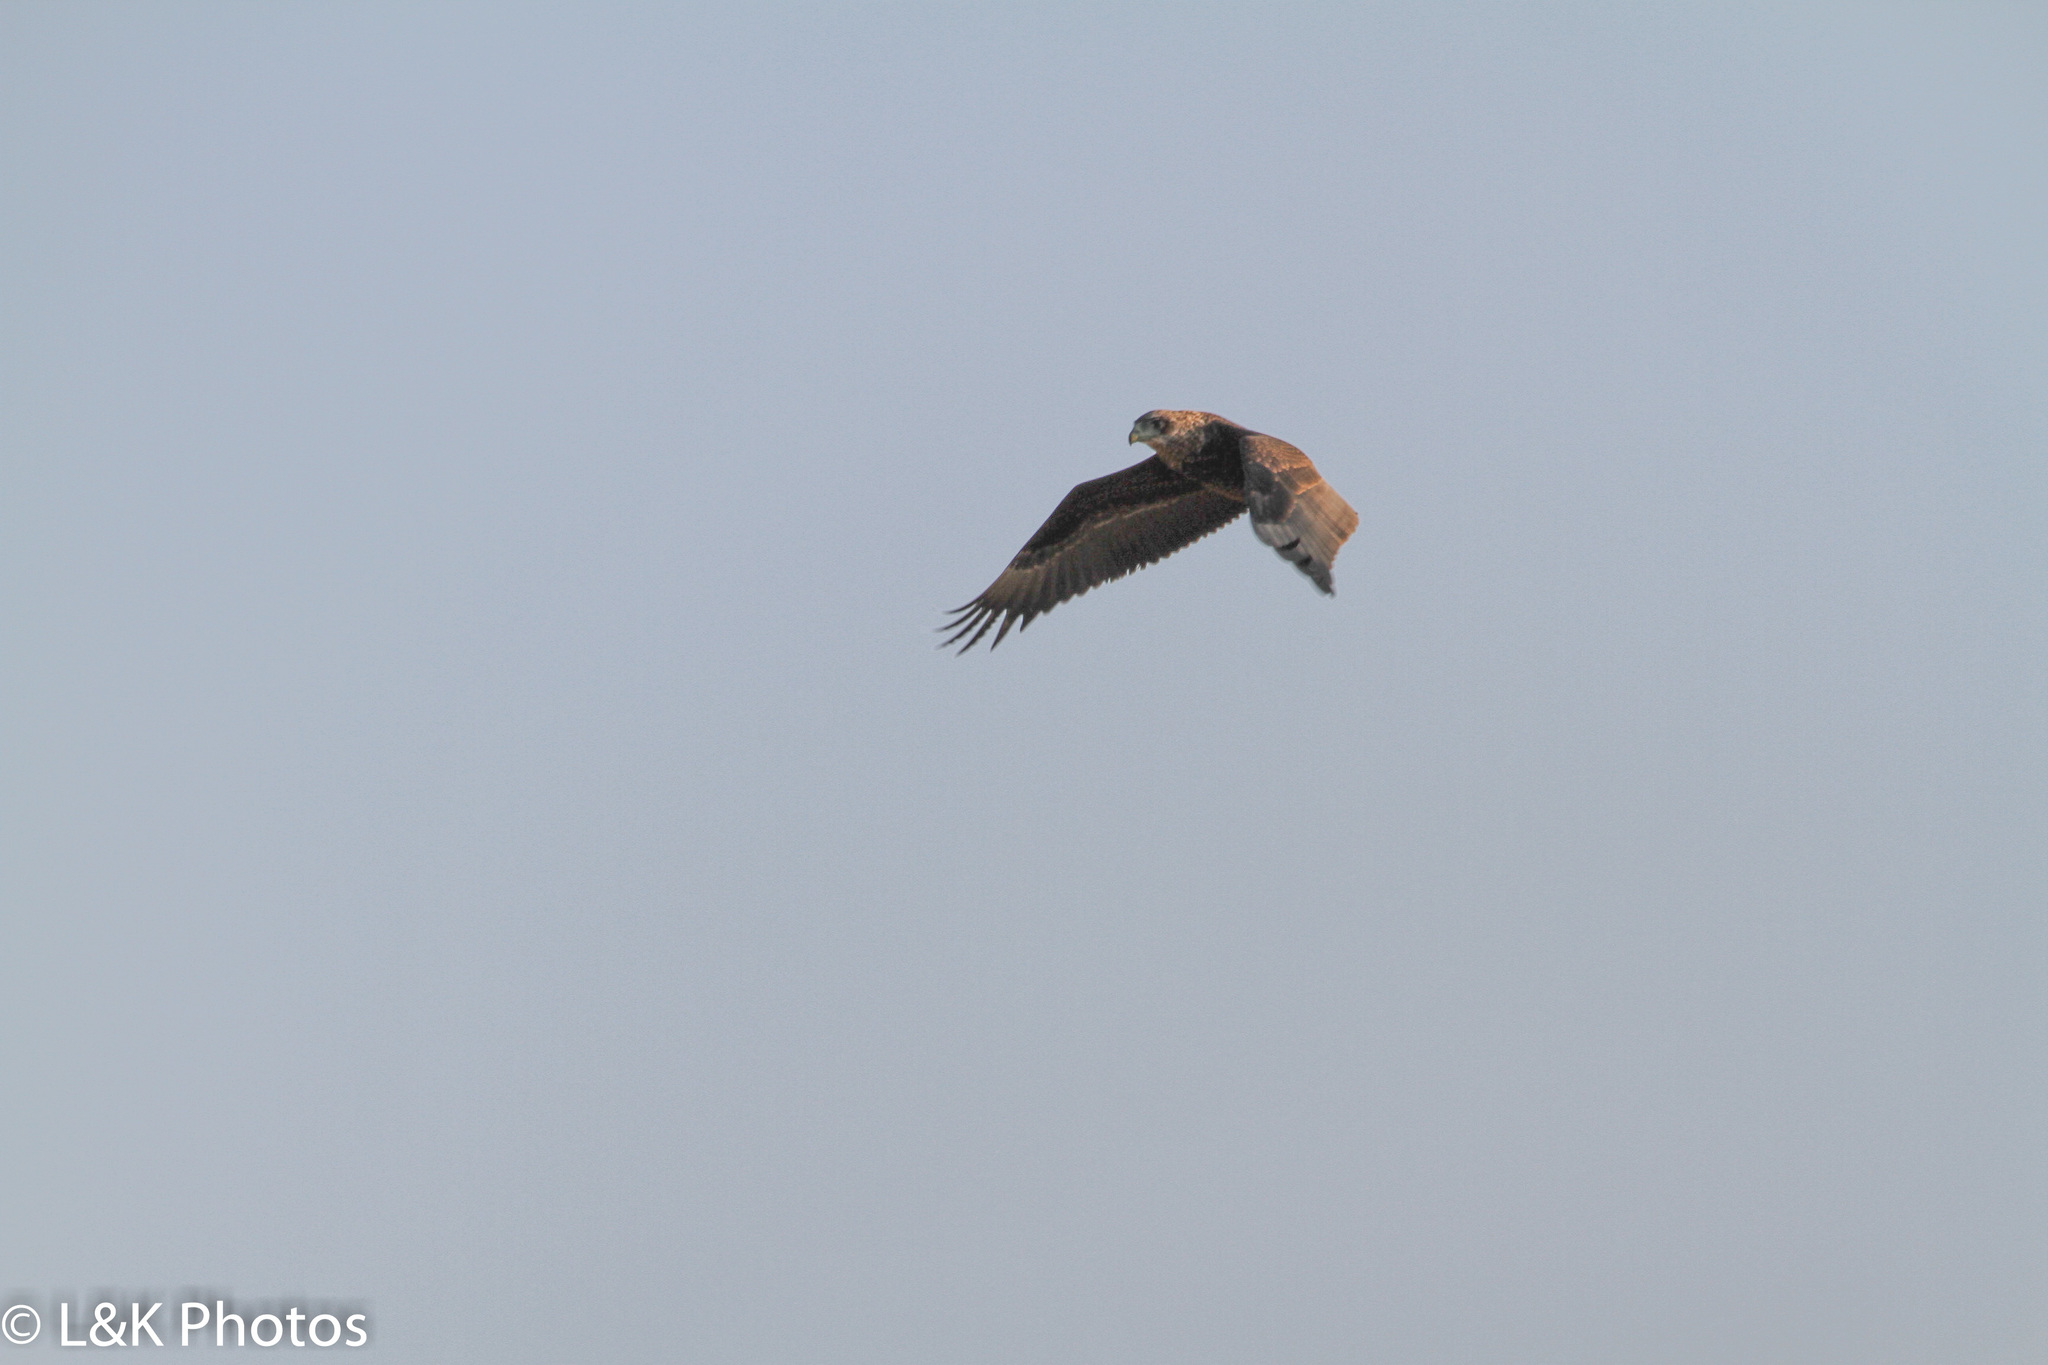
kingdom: Animalia
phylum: Chordata
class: Aves
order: Accipitriformes
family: Accipitridae
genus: Terathopius
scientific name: Terathopius ecaudatus
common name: Bateleur
